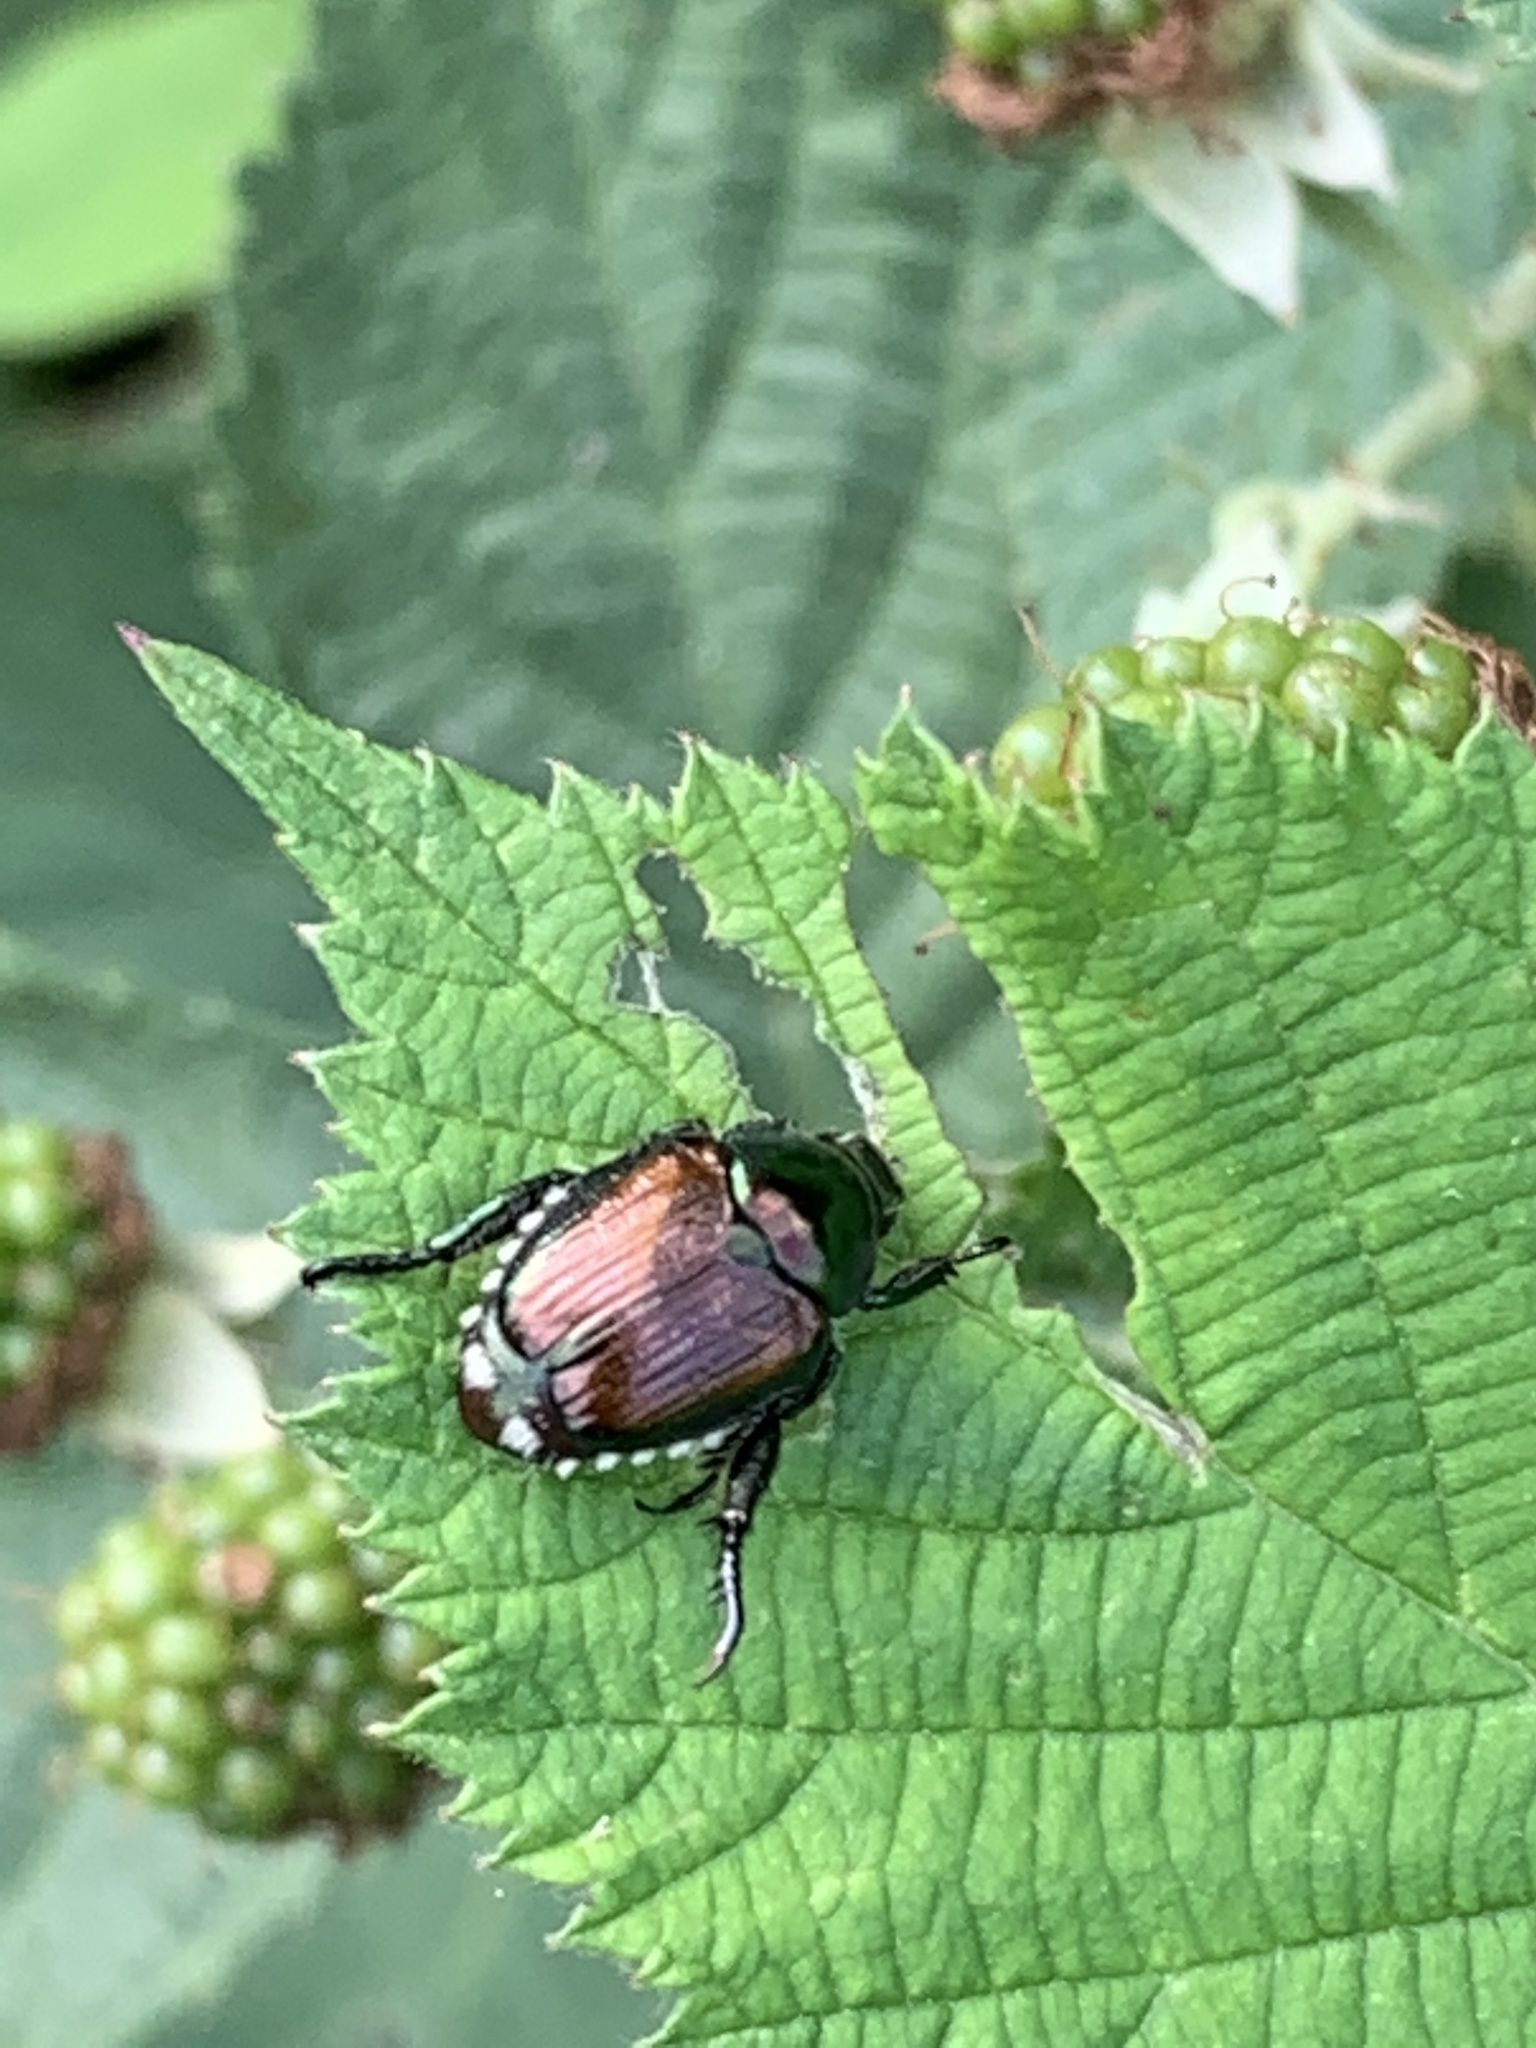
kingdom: Animalia
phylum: Arthropoda
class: Insecta
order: Coleoptera
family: Scarabaeidae
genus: Popillia
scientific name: Popillia japonica
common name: Japanese beetle
